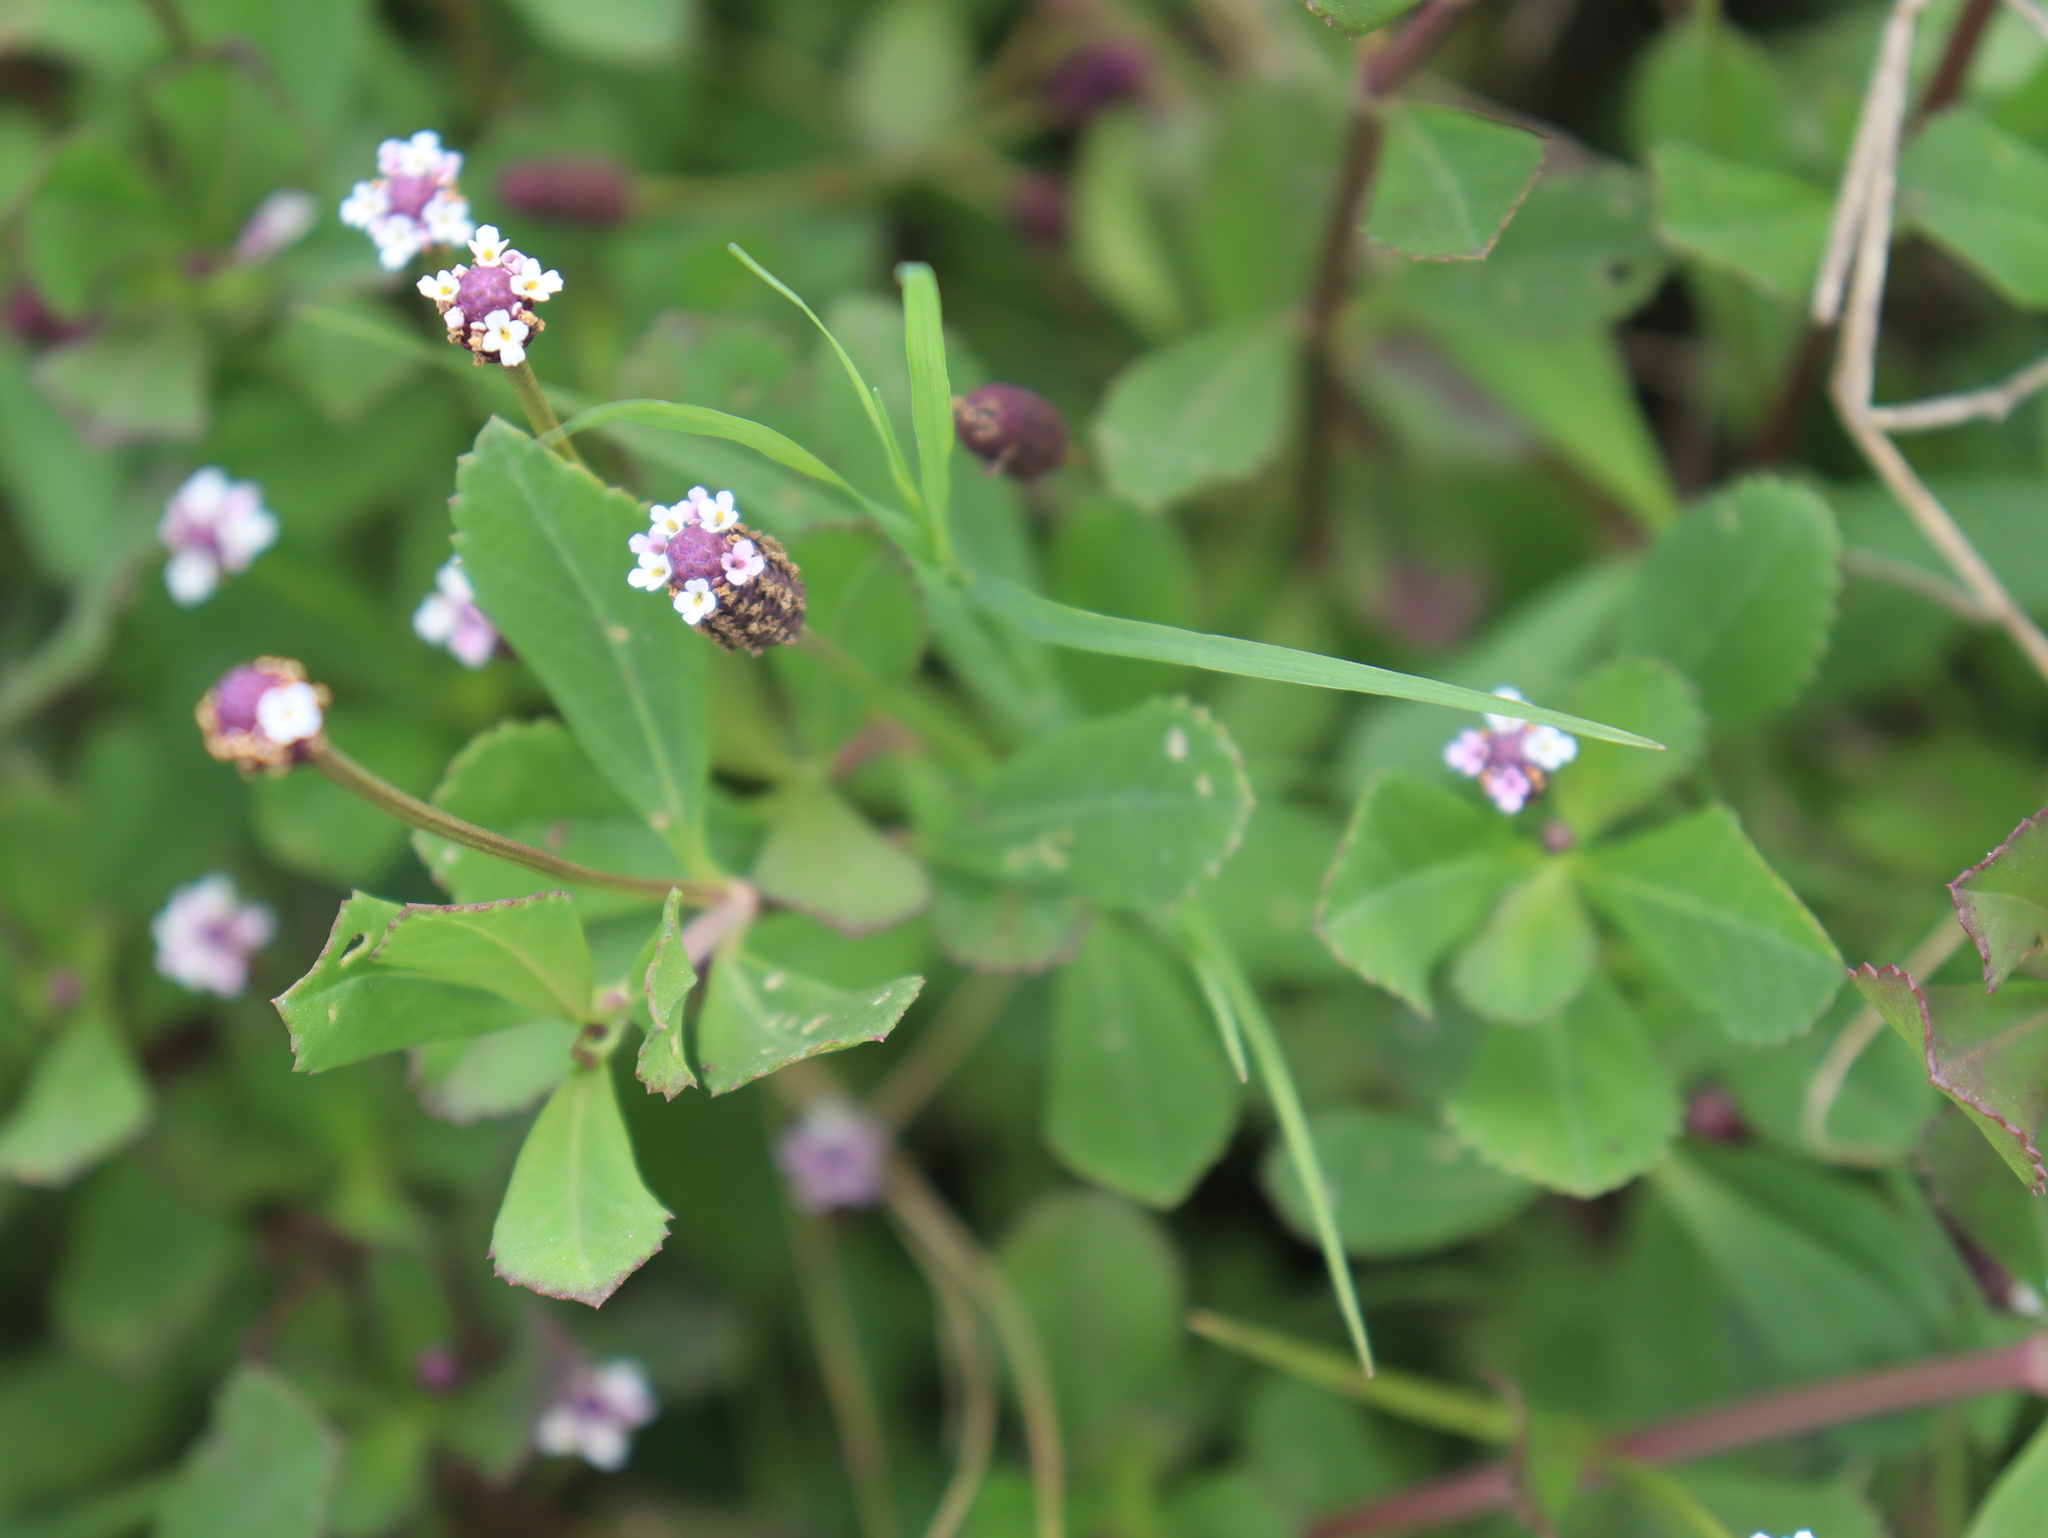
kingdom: Plantae
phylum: Tracheophyta
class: Magnoliopsida
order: Lamiales
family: Verbenaceae
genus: Phyla
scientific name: Phyla nodiflora
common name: Frogfruit
